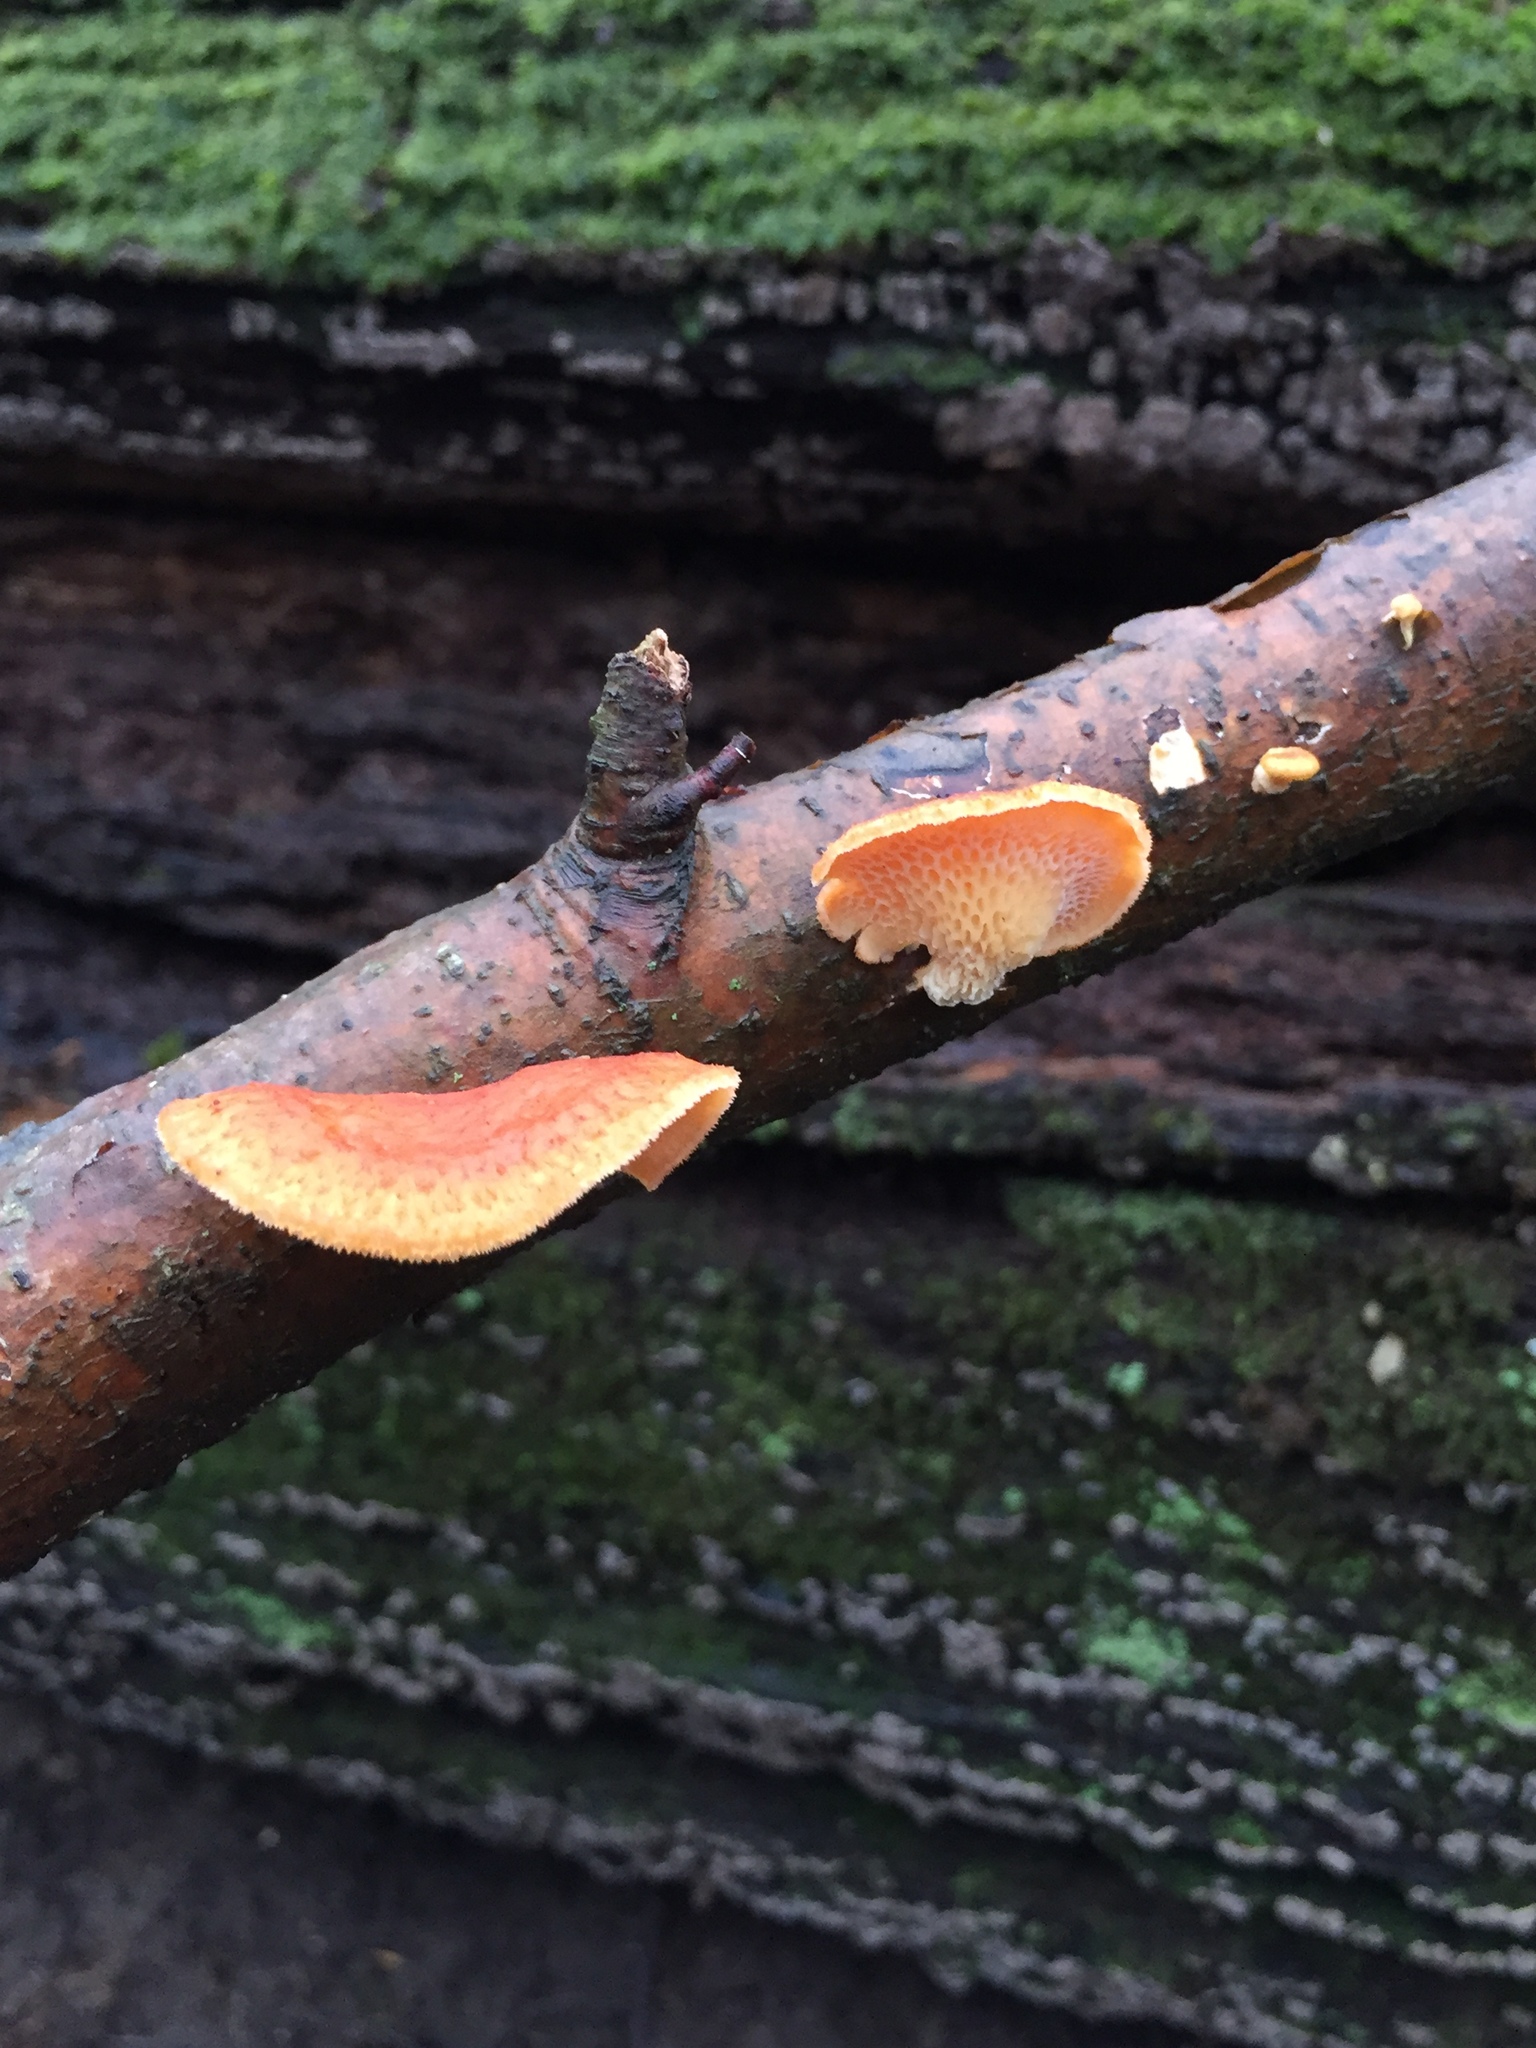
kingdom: Fungi
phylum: Basidiomycota
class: Agaricomycetes
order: Polyporales
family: Polyporaceae
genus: Neofavolus
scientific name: Neofavolus alveolaris
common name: Hexagonal-pored polypore
